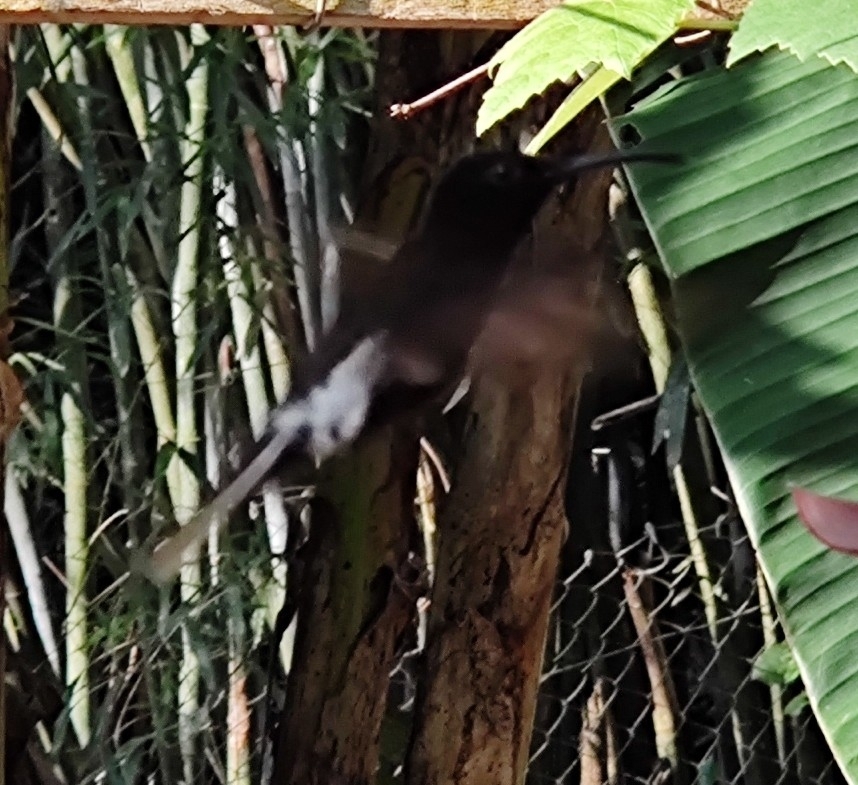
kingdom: Animalia
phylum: Chordata
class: Aves
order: Apodiformes
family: Trochilidae
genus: Florisuga
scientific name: Florisuga fusca
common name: Black jacobin
